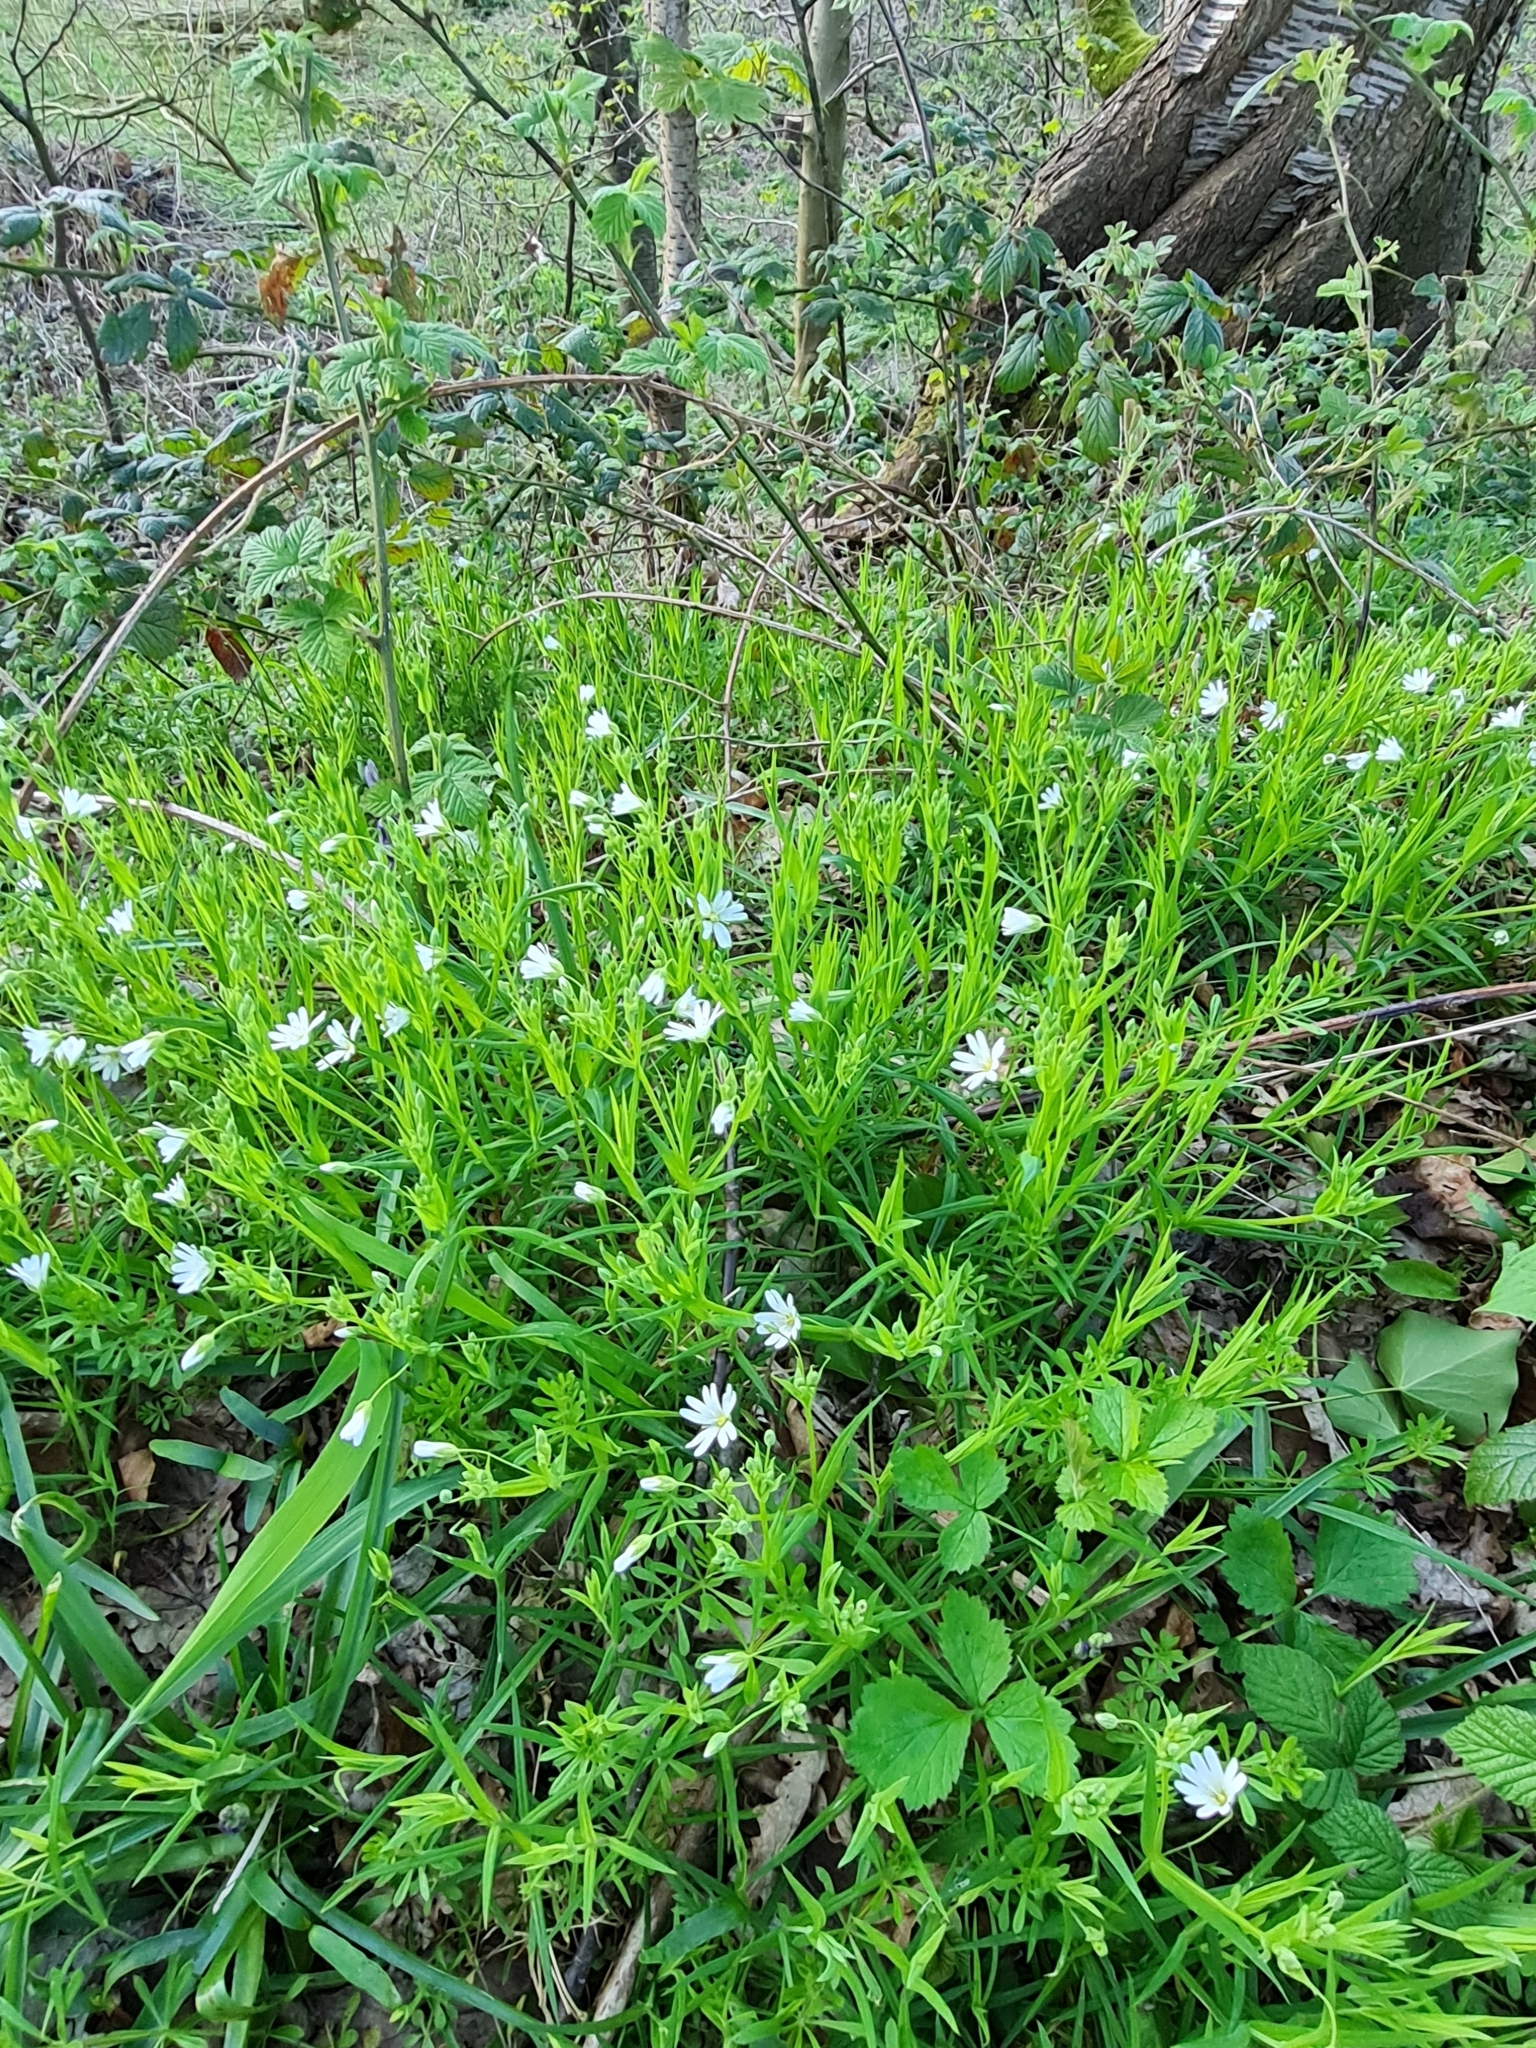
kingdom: Plantae
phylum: Tracheophyta
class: Magnoliopsida
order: Caryophyllales
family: Caryophyllaceae
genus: Rabelera
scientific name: Rabelera holostea
